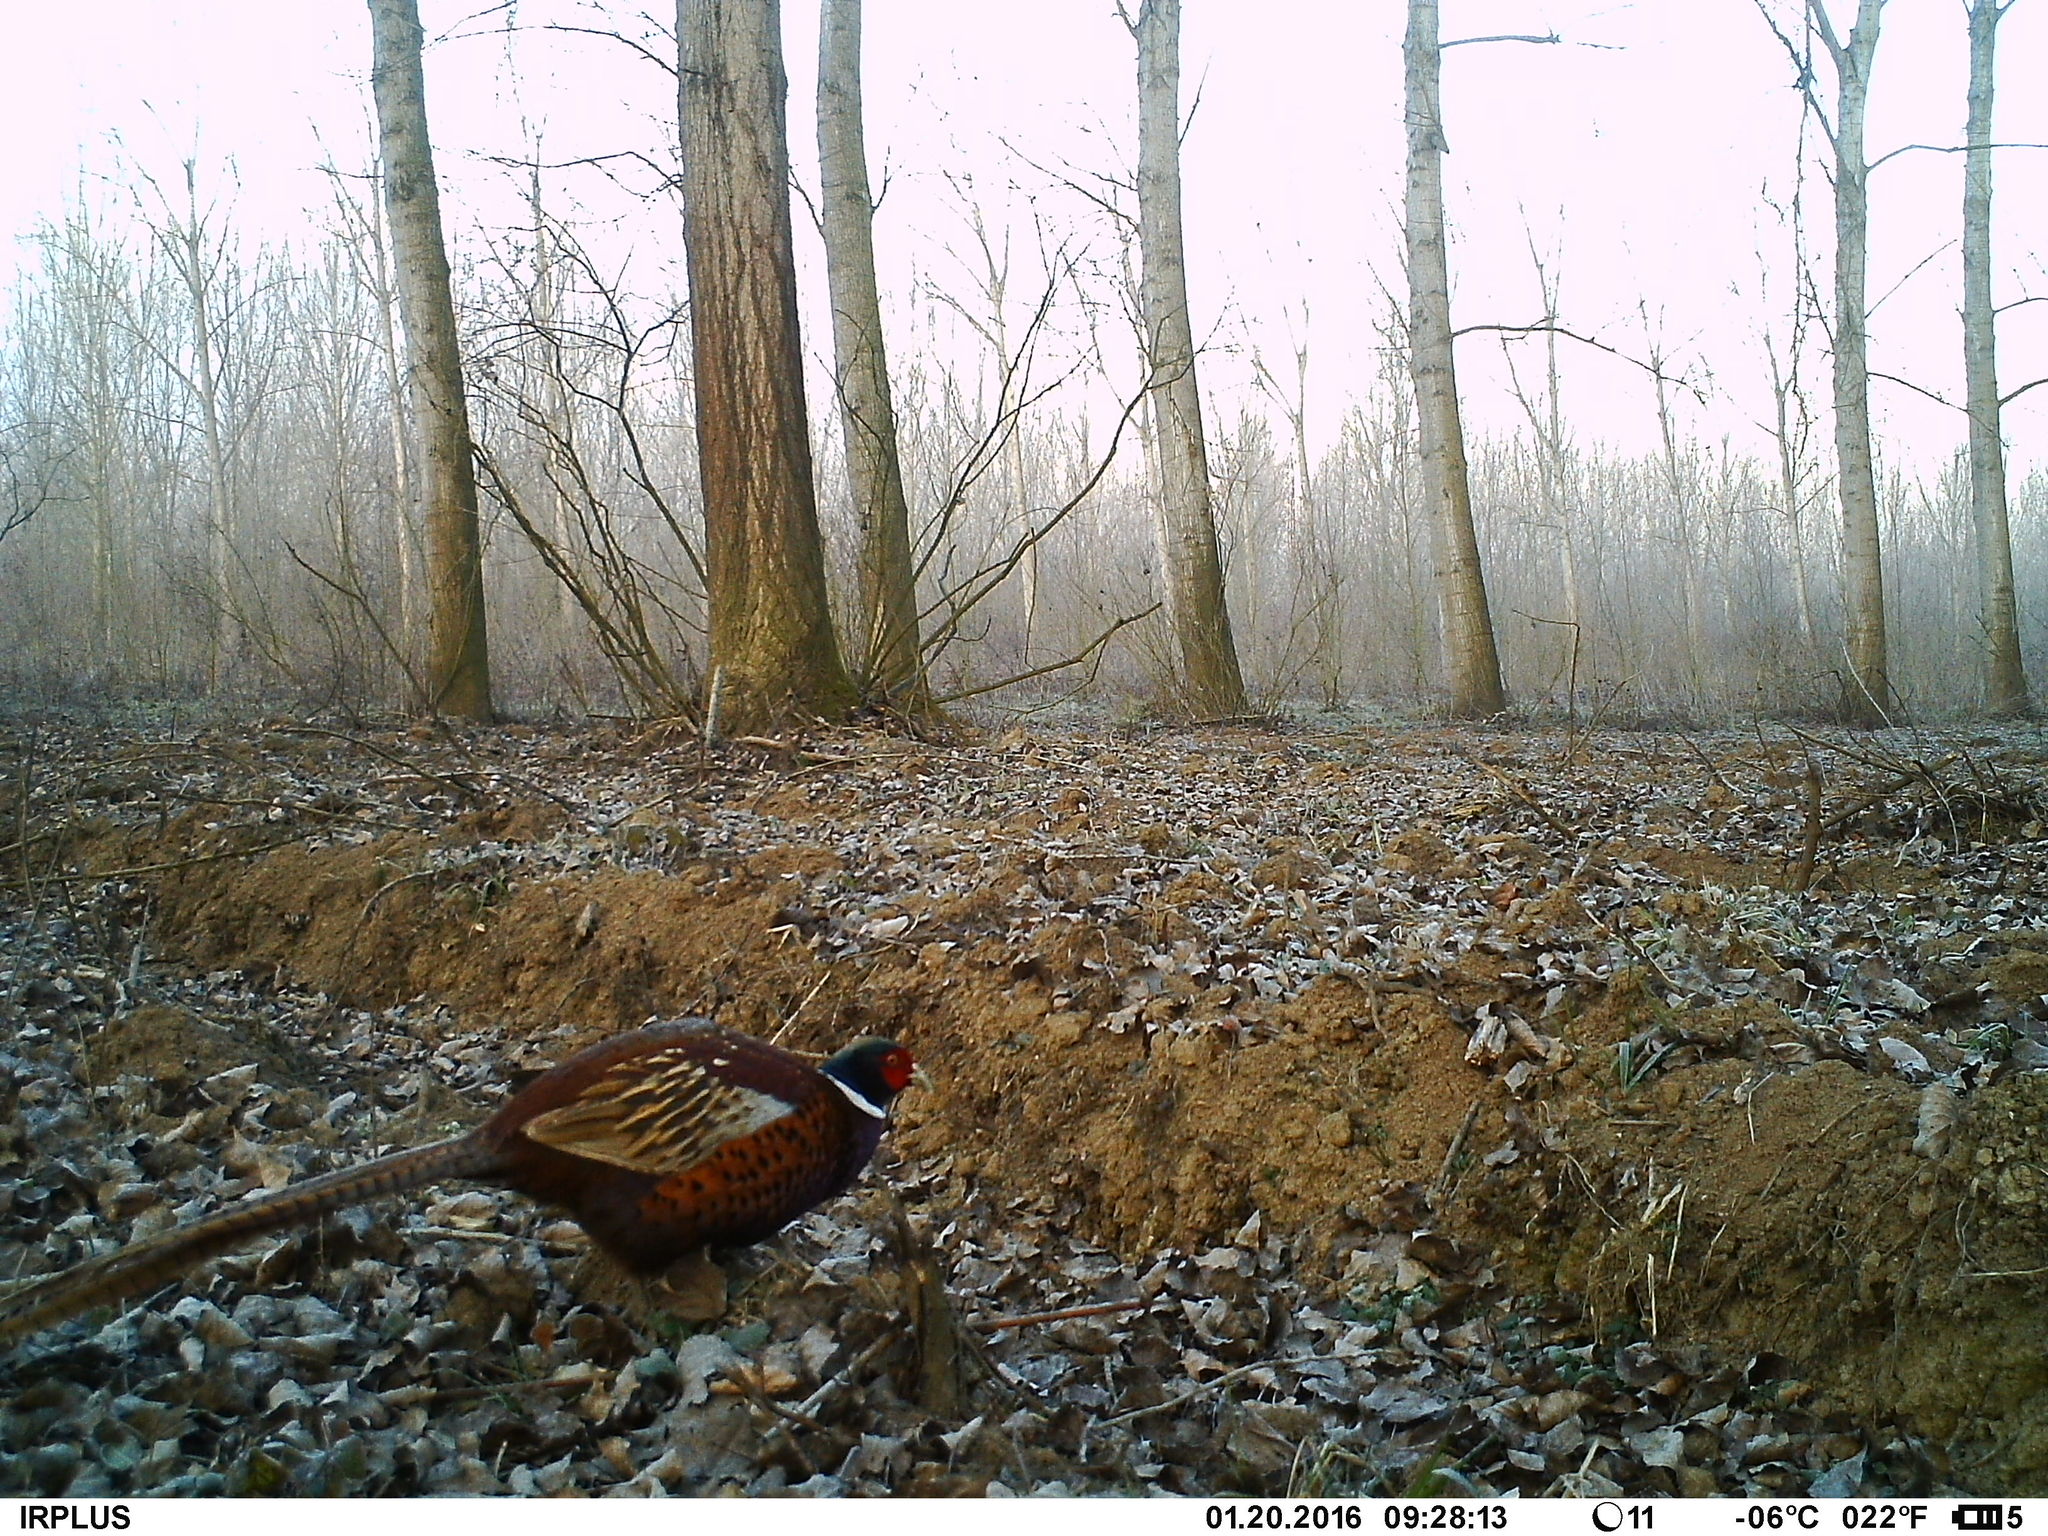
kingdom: Animalia
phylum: Chordata
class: Aves
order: Galliformes
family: Phasianidae
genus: Phasianus
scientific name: Phasianus colchicus
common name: Common pheasant
